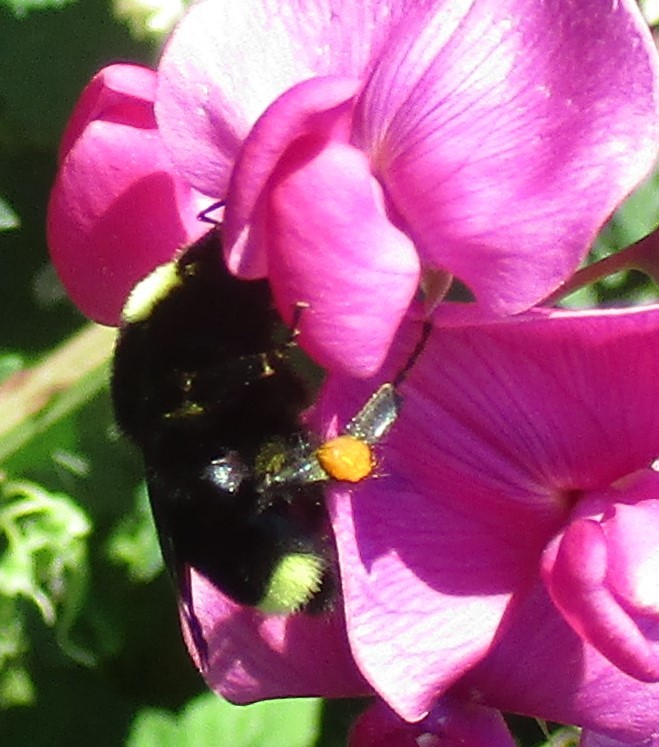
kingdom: Animalia
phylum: Arthropoda
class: Insecta
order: Hymenoptera
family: Apidae
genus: Bombus
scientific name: Bombus vosnesenskii
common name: Vosnesensky bumble bee
